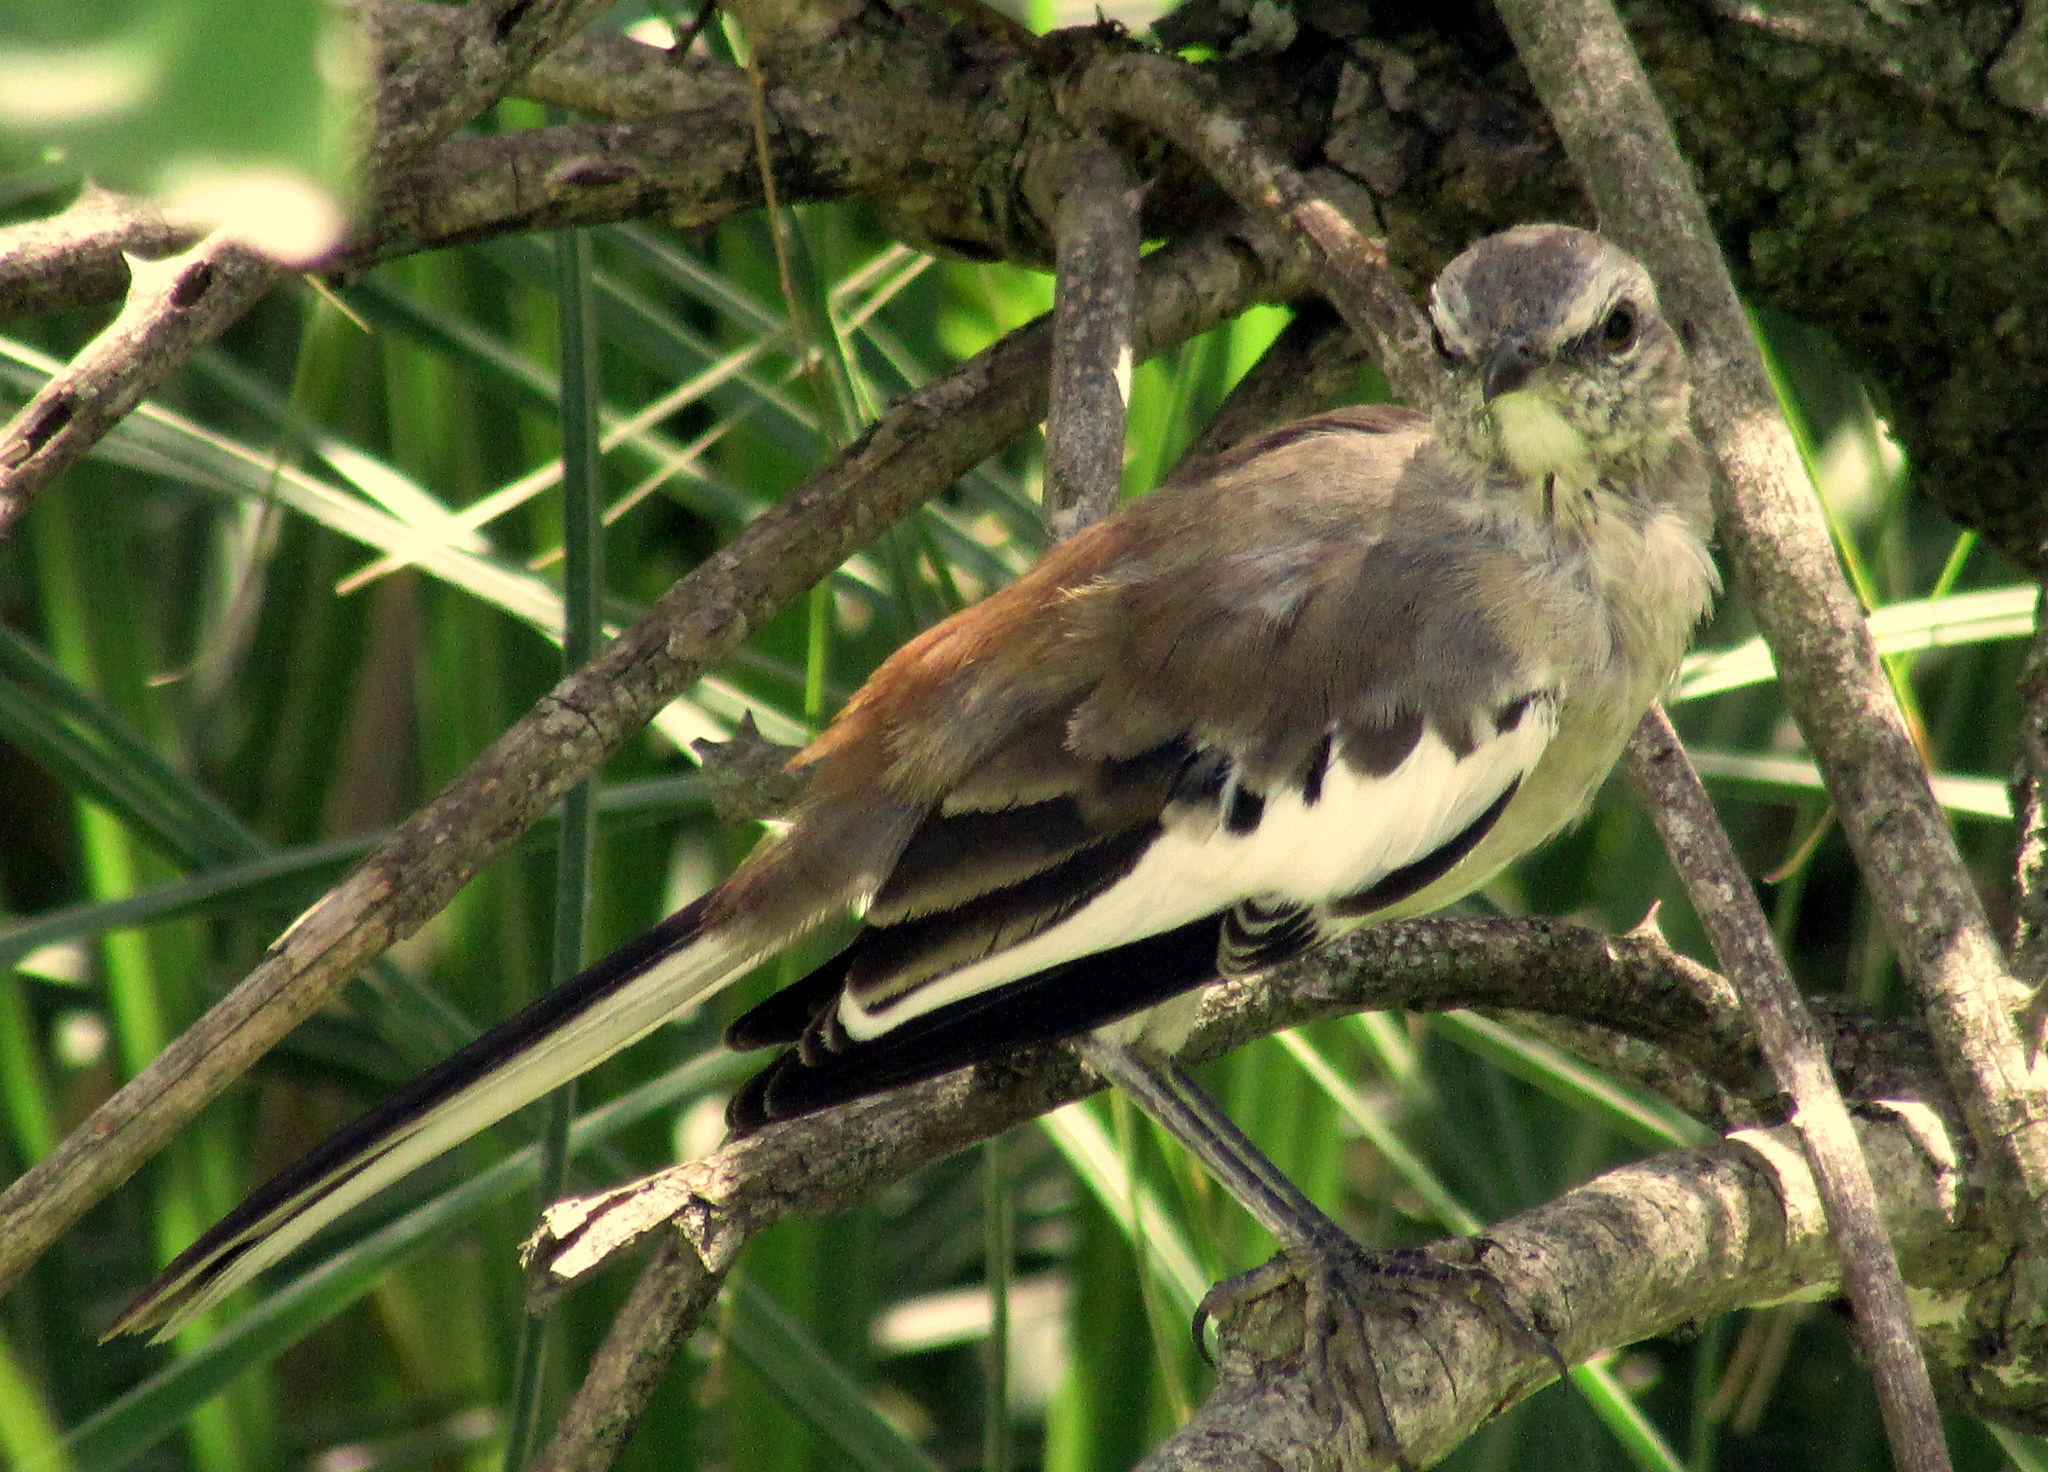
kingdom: Animalia
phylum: Chordata
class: Aves
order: Passeriformes
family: Mimidae
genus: Mimus
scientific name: Mimus triurus
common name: White-banded mockingbird
